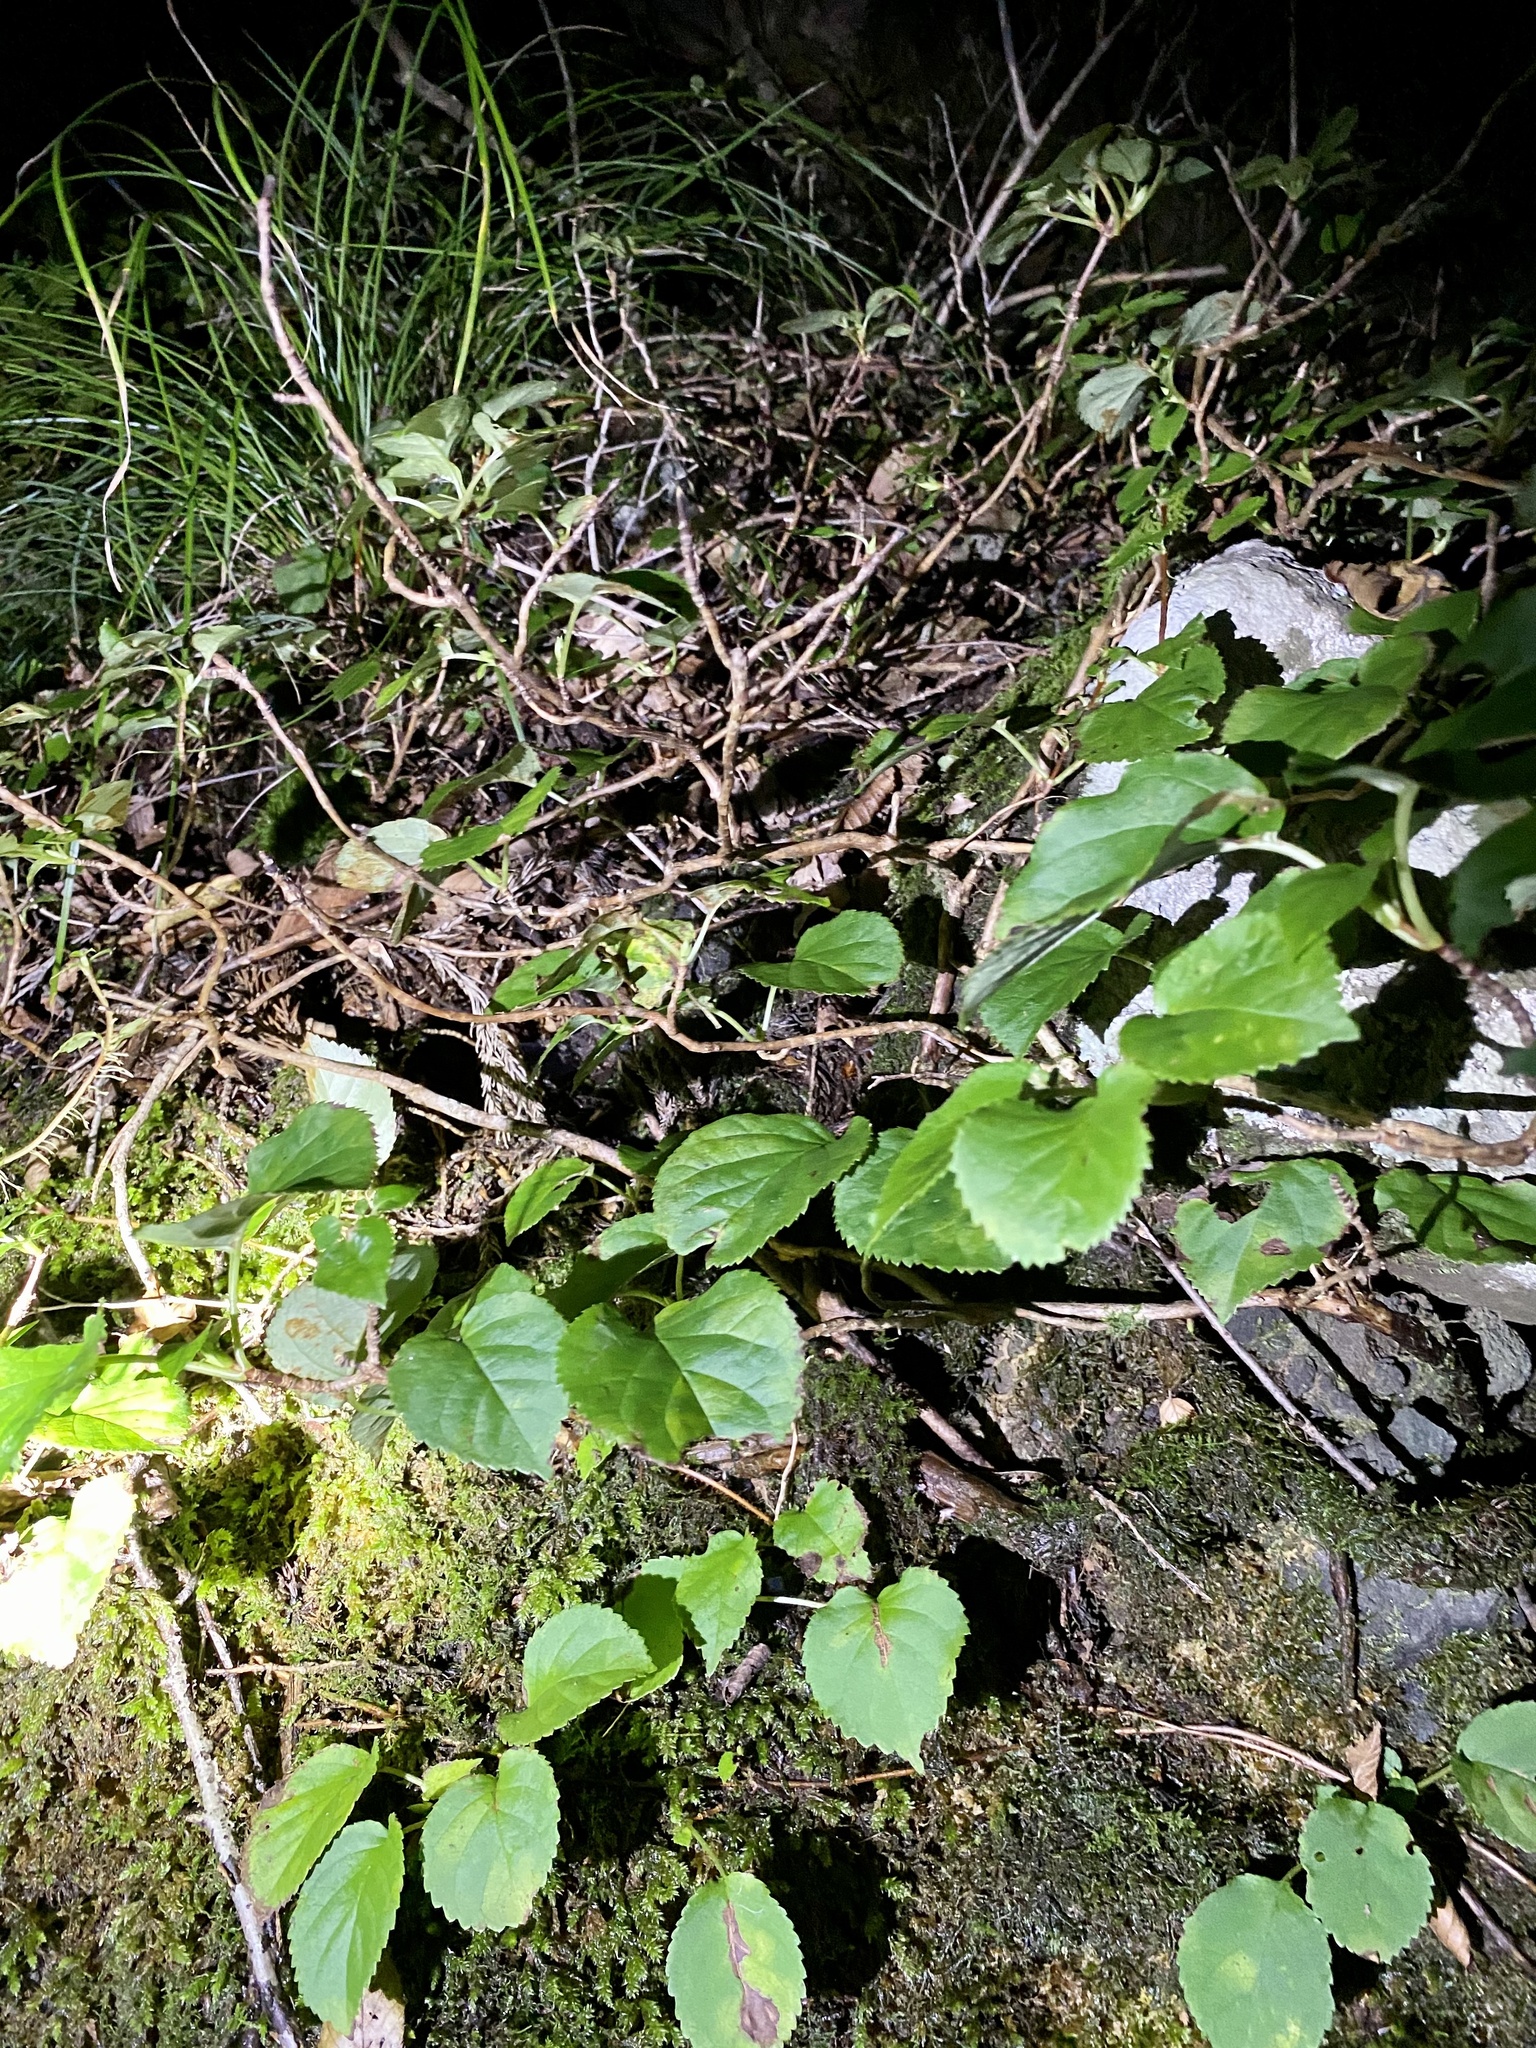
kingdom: Plantae
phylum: Tracheophyta
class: Magnoliopsida
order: Cornales
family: Hydrangeaceae
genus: Hydrangea
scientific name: Hydrangea hydrangeoides
